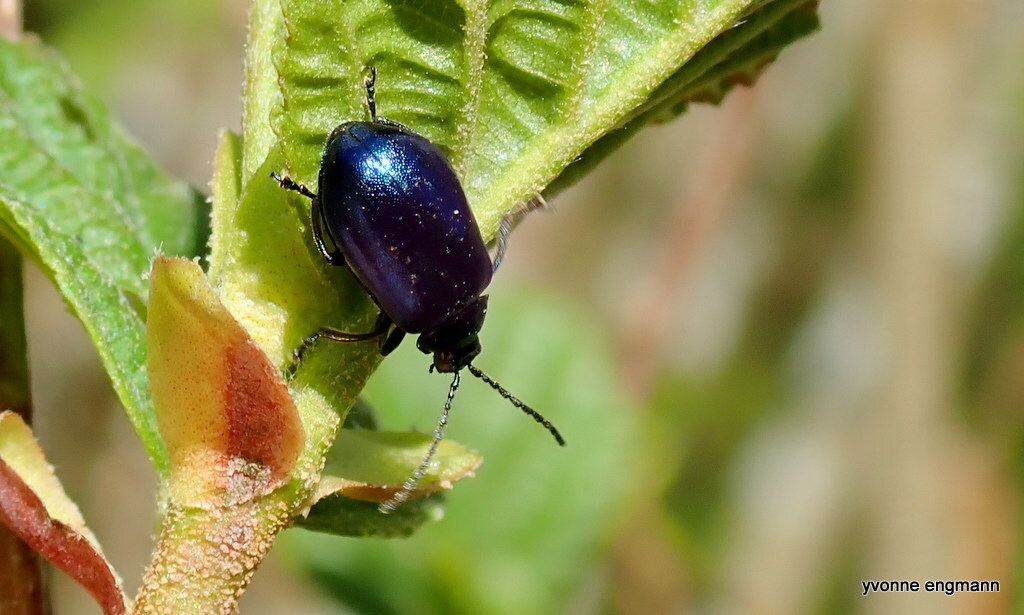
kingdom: Animalia
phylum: Arthropoda
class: Insecta
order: Coleoptera
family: Chrysomelidae
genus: Agelastica
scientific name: Agelastica alni
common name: Alder leaf beetle
